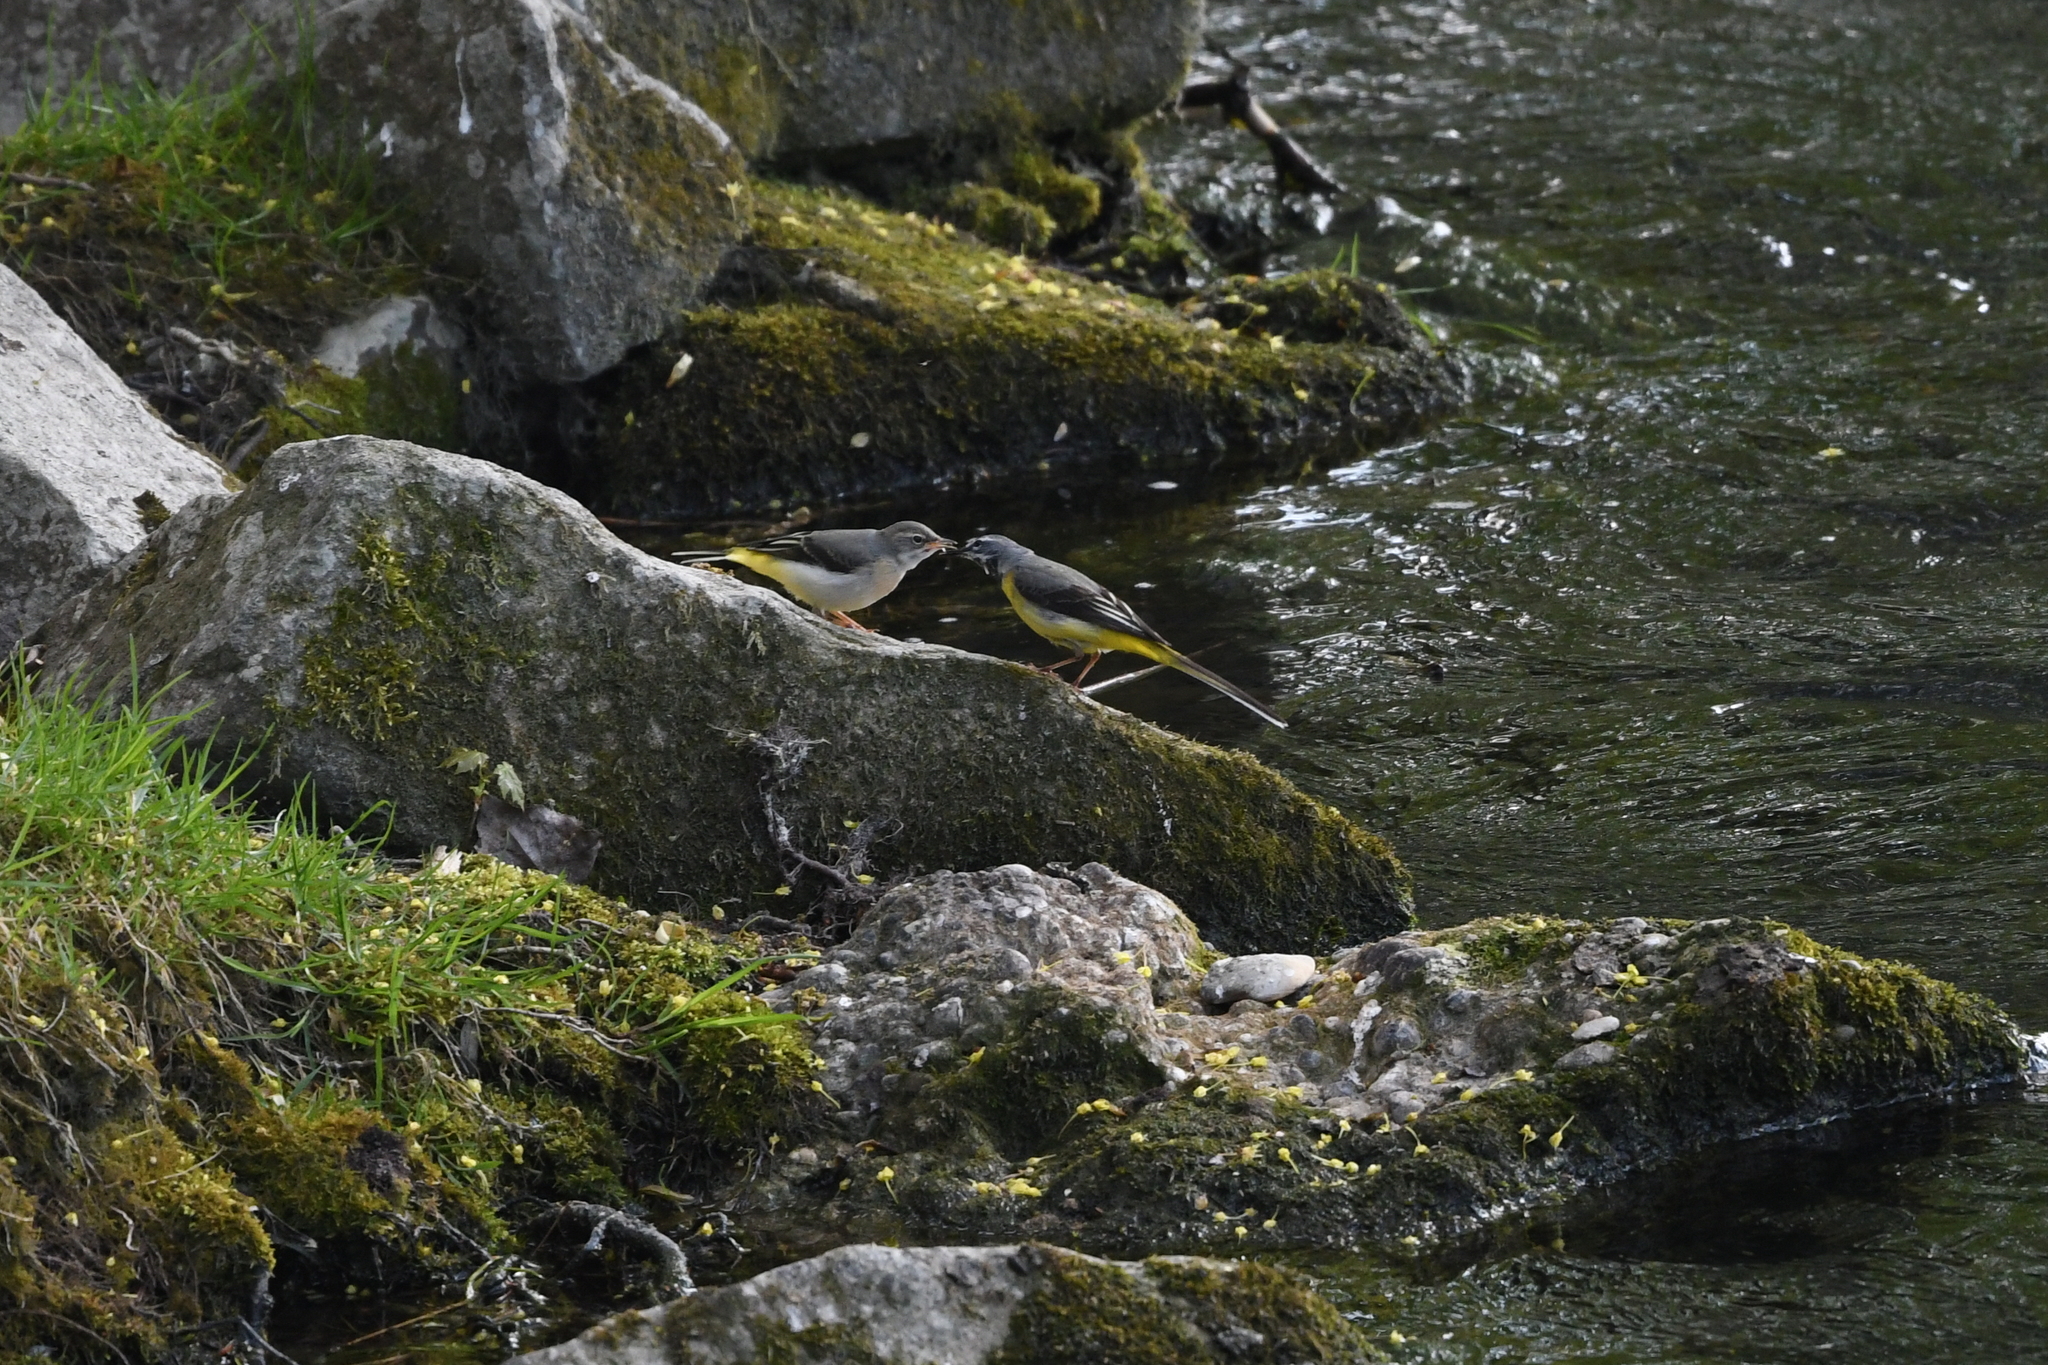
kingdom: Animalia
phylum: Chordata
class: Aves
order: Passeriformes
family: Motacillidae
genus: Motacilla
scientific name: Motacilla cinerea
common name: Grey wagtail
